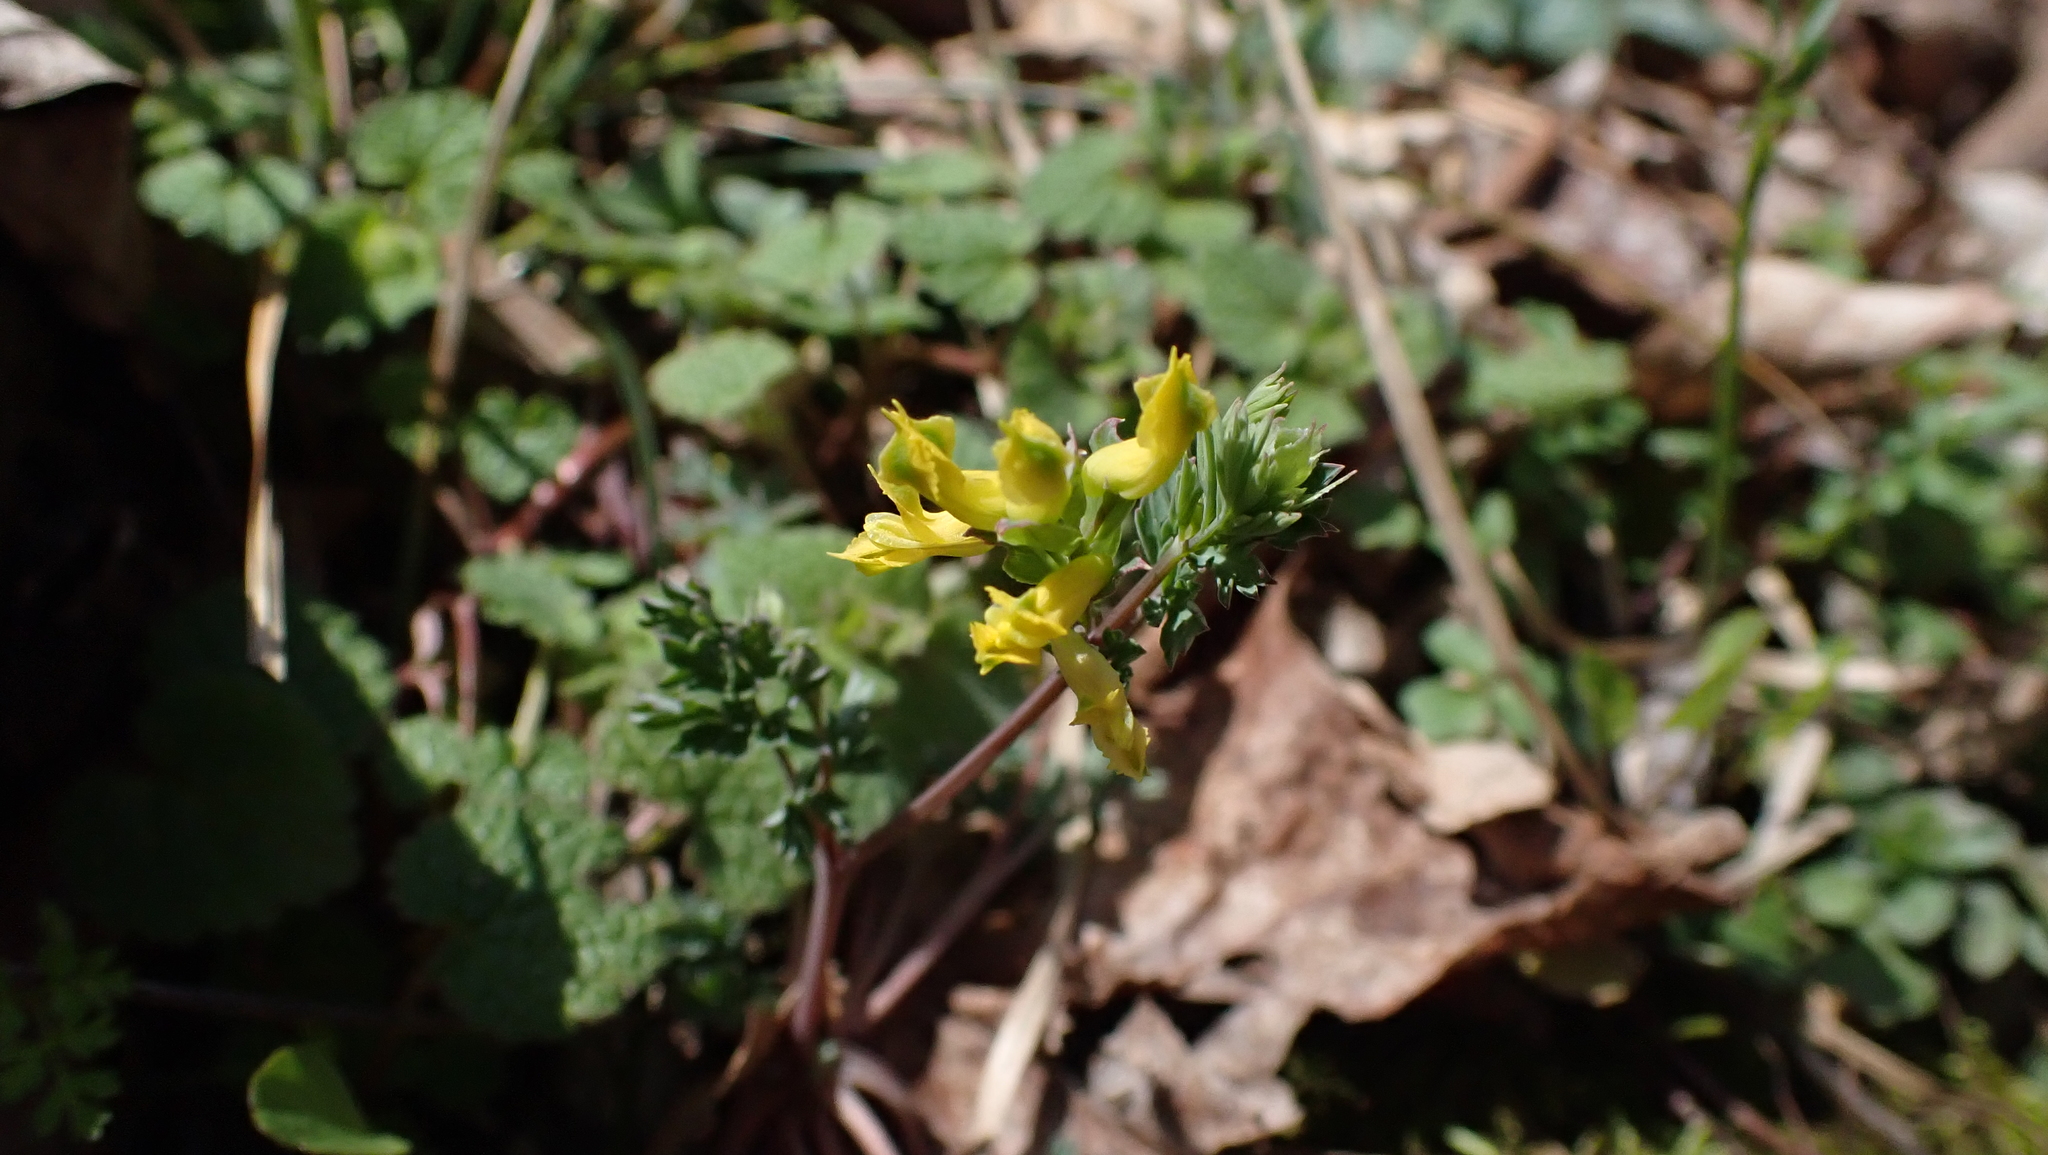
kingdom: Plantae
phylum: Tracheophyta
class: Magnoliopsida
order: Ranunculales
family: Papaveraceae
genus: Corydalis
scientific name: Corydalis flavula
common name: Yellow corydalis
